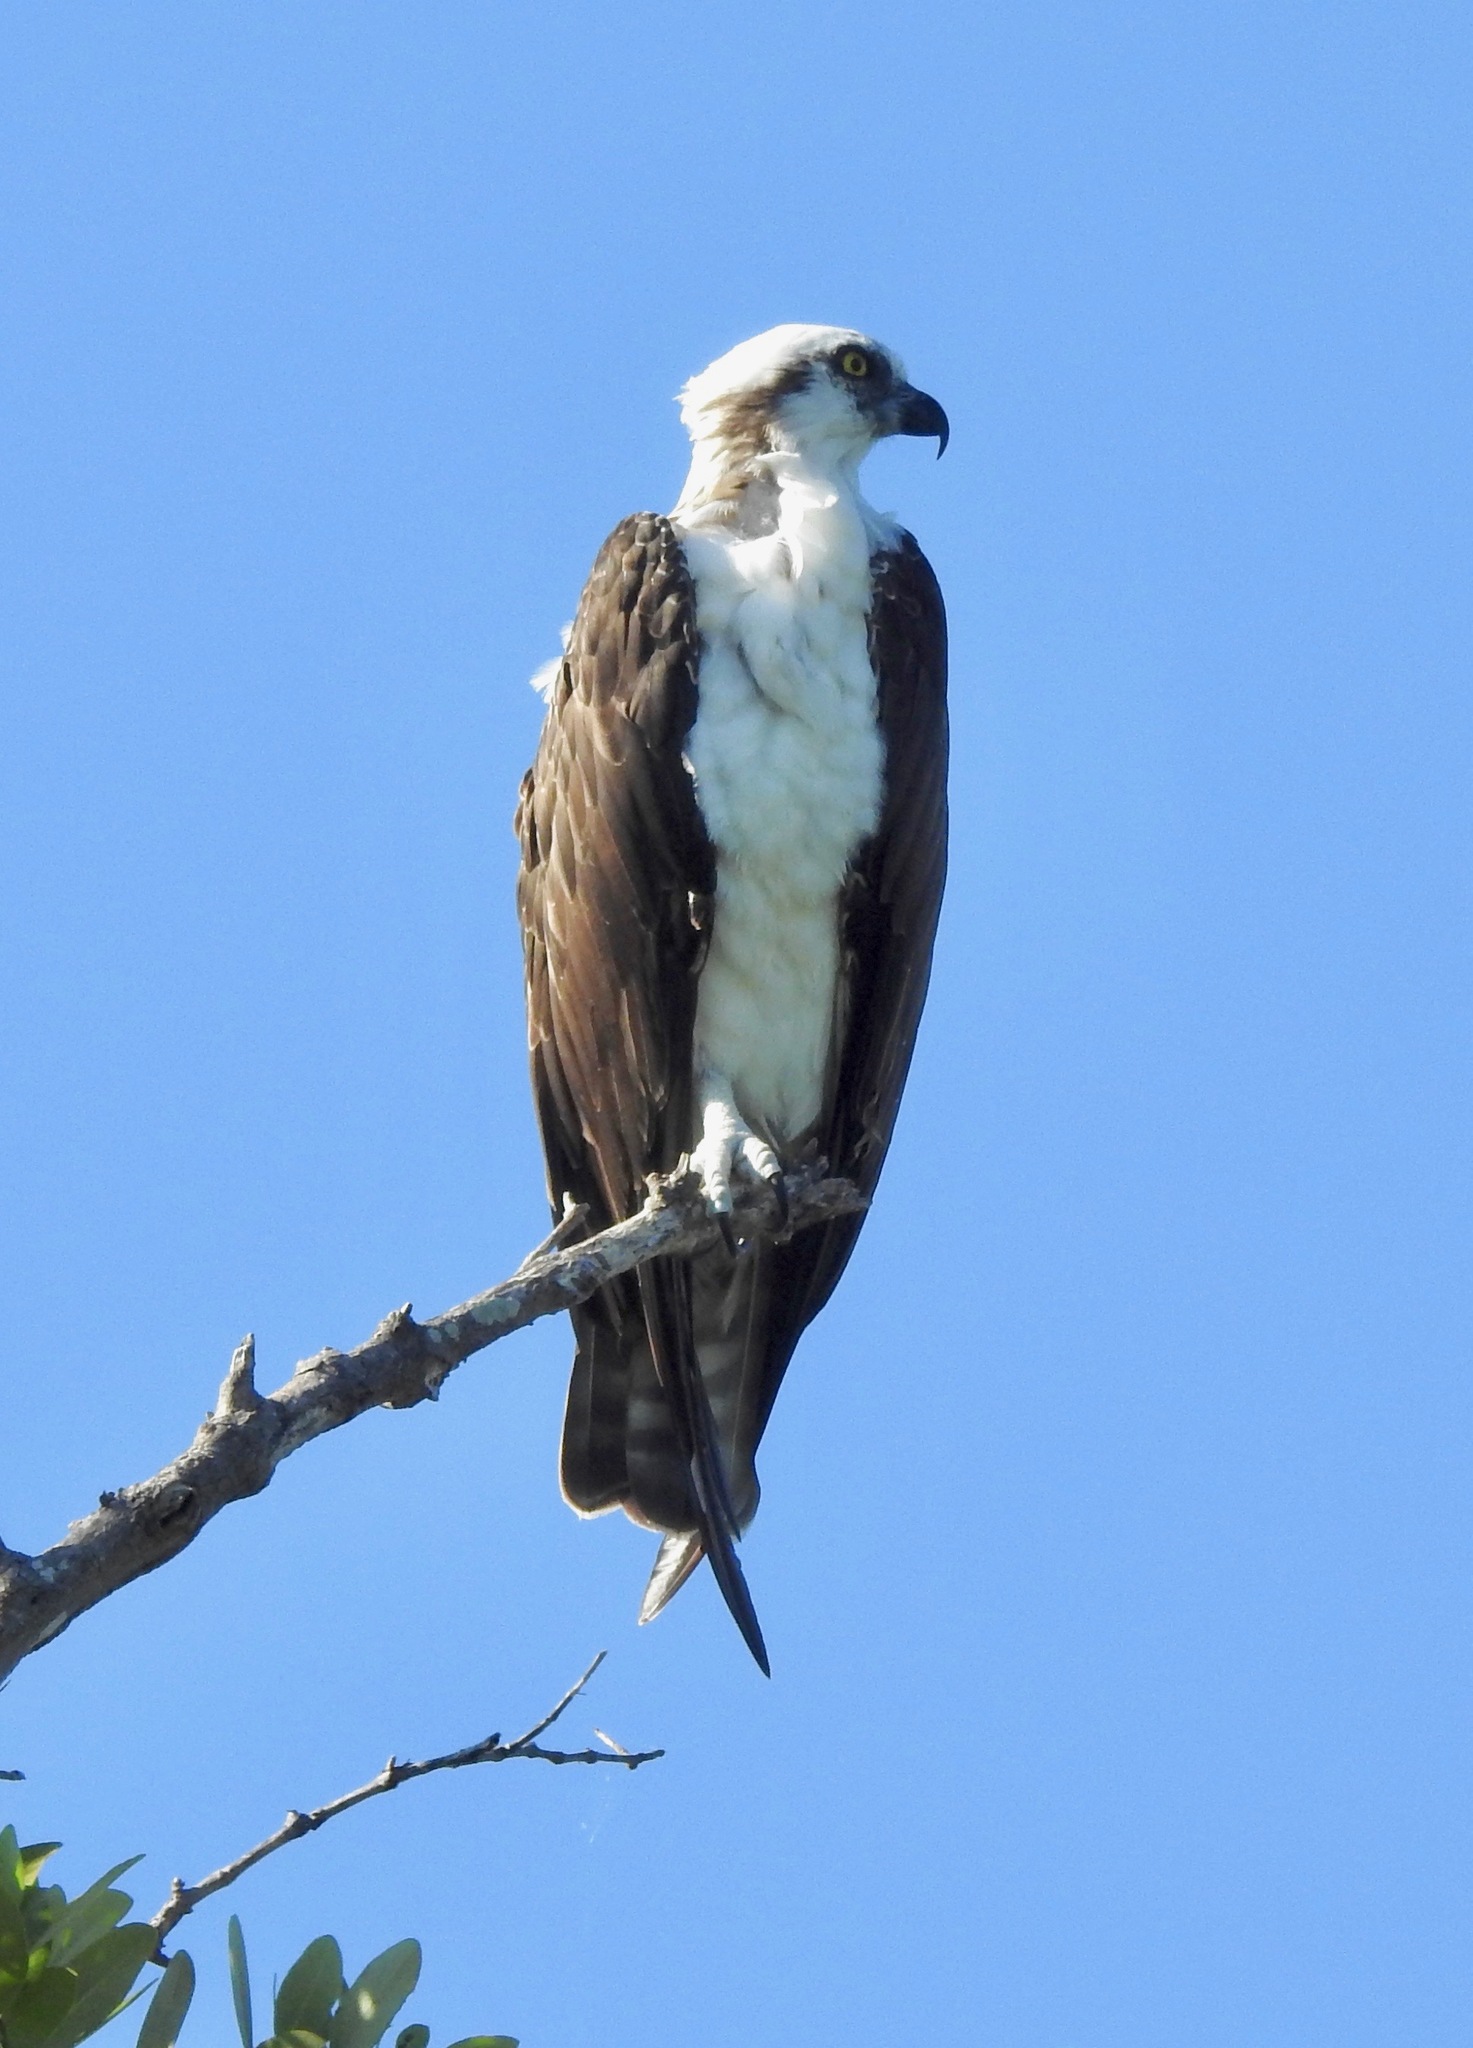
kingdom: Animalia
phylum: Chordata
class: Aves
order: Accipitriformes
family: Pandionidae
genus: Pandion
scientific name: Pandion haliaetus
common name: Osprey
